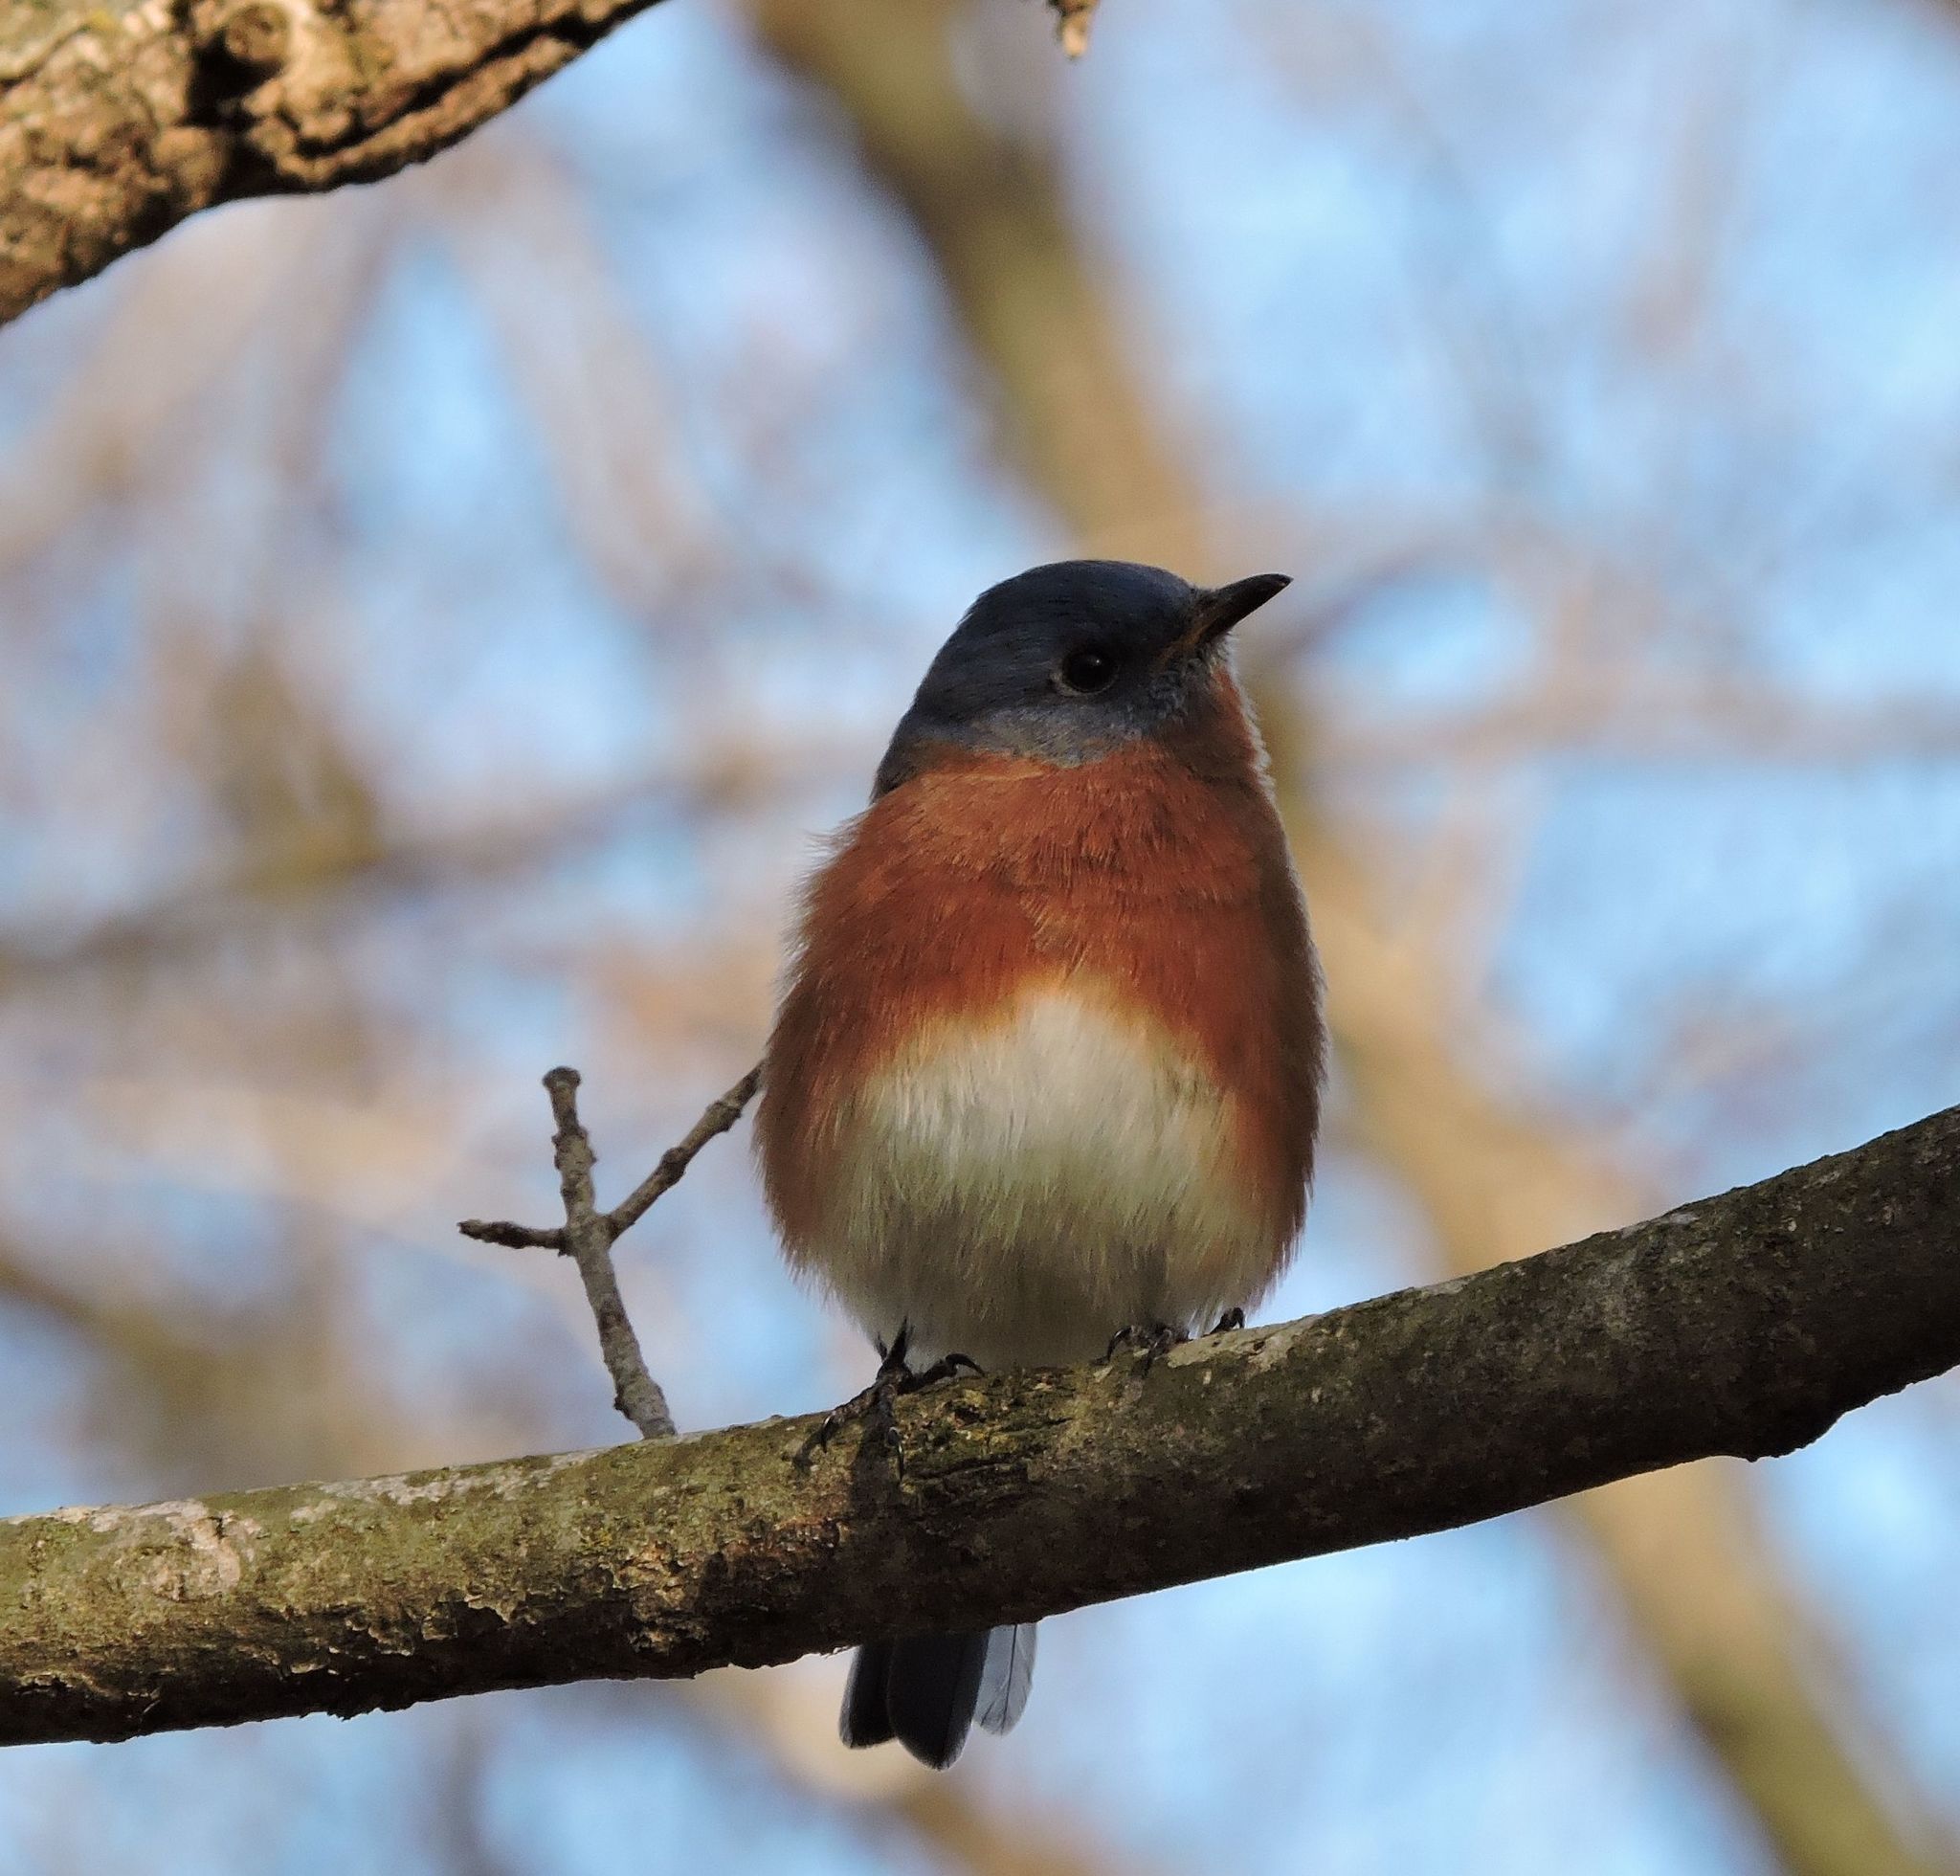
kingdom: Animalia
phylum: Chordata
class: Aves
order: Passeriformes
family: Turdidae
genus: Sialia
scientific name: Sialia sialis
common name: Eastern bluebird
